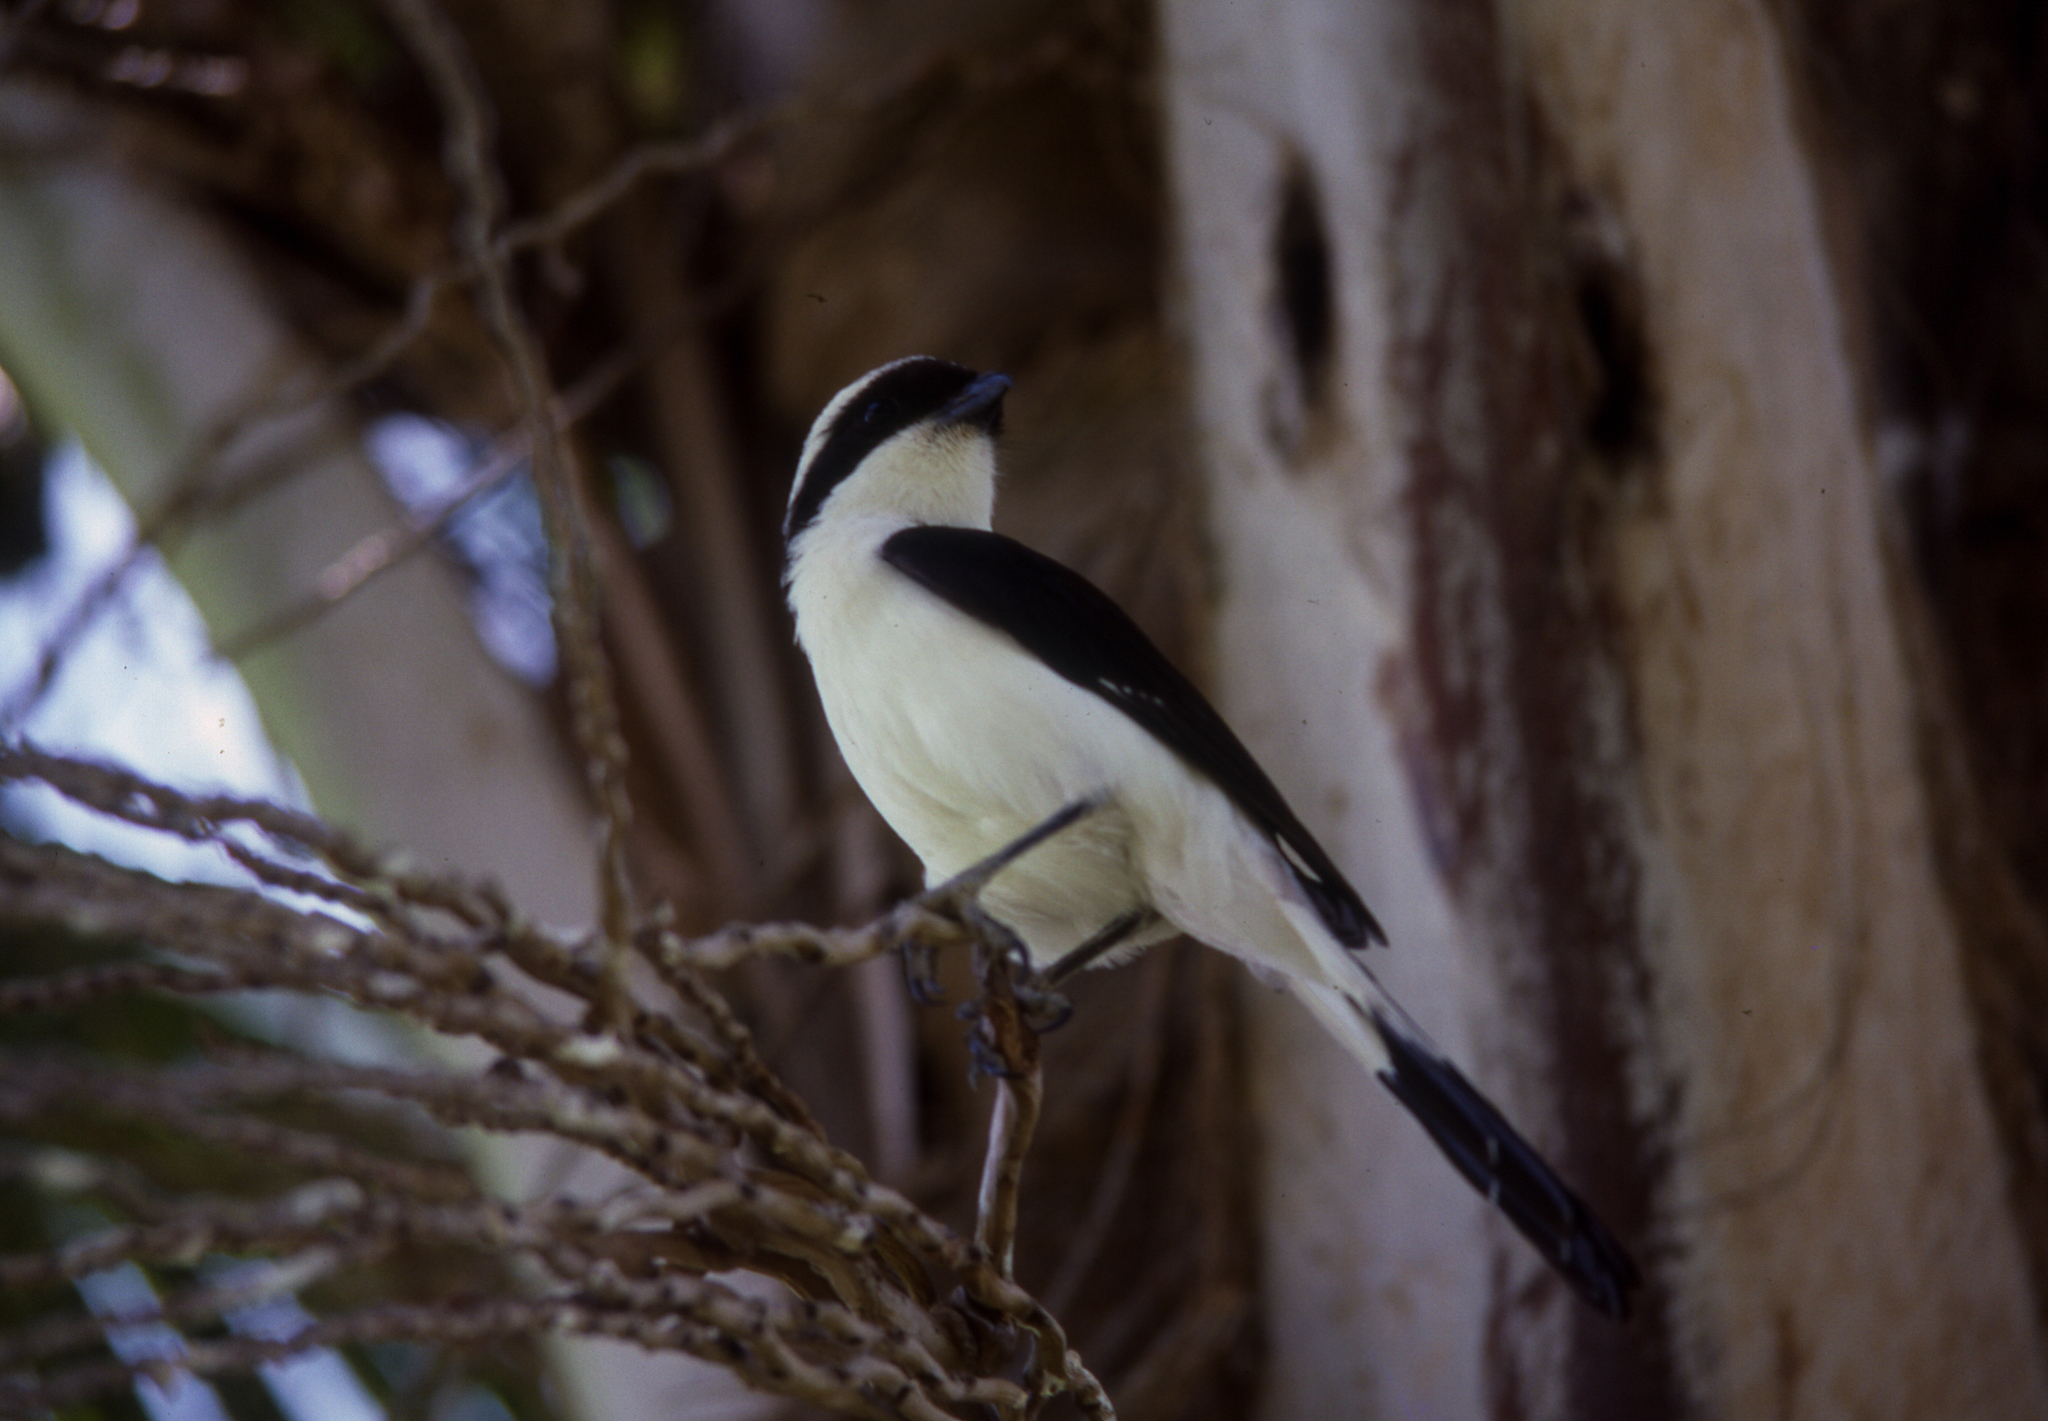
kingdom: Animalia
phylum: Chordata
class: Aves
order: Passeriformes
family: Laniidae
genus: Lanius
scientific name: Lanius excubitoroides
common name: Grey-backed fiscal
